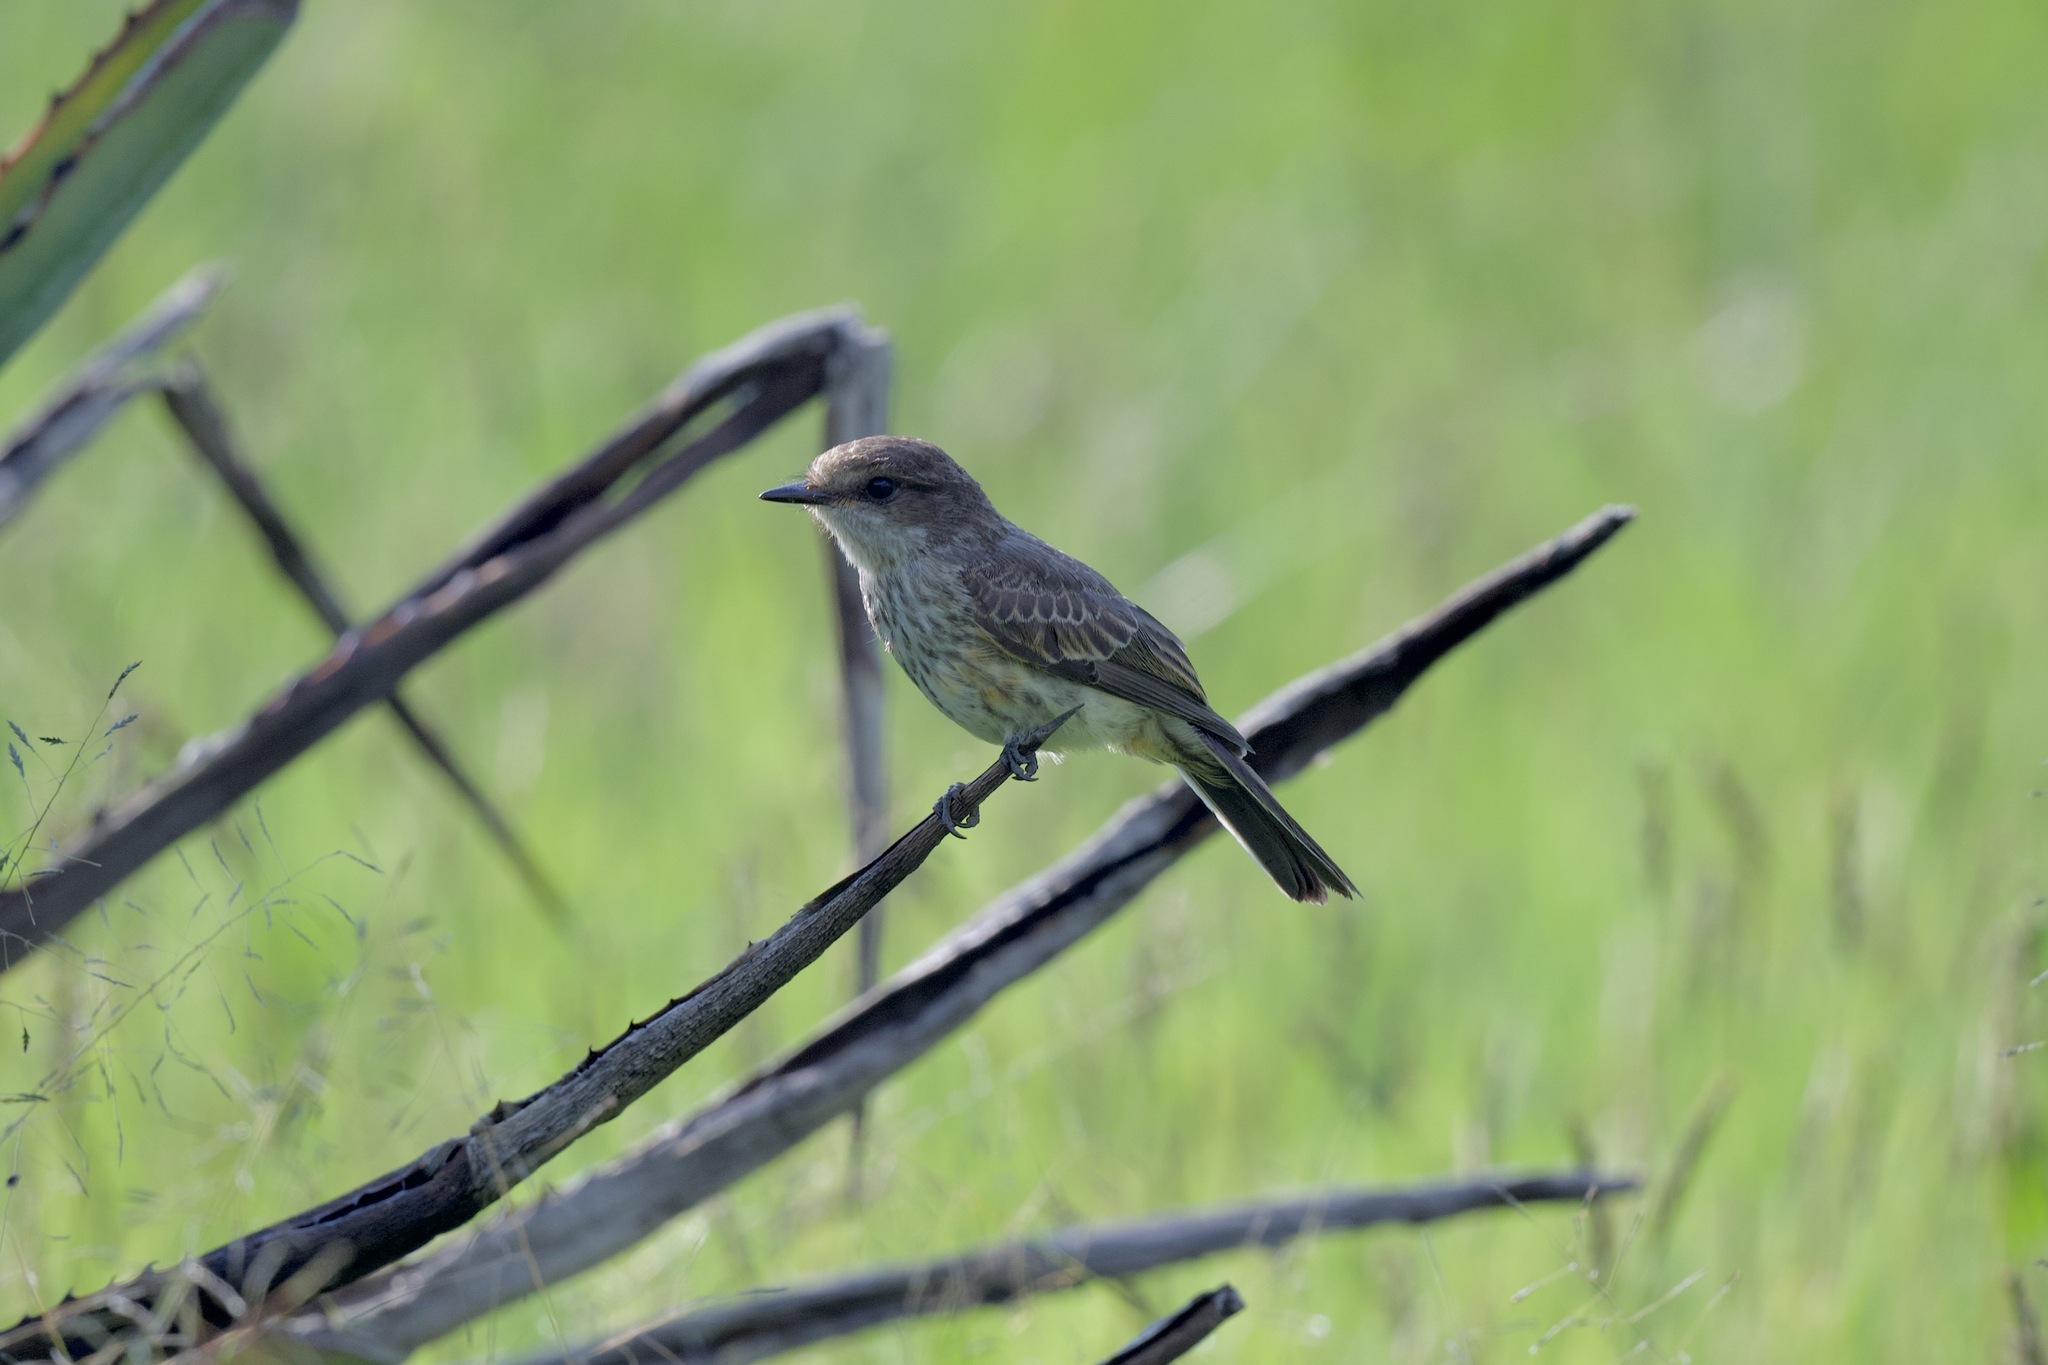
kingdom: Animalia
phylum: Chordata
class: Aves
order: Passeriformes
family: Tyrannidae
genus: Pyrocephalus
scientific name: Pyrocephalus rubinus
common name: Vermilion flycatcher
